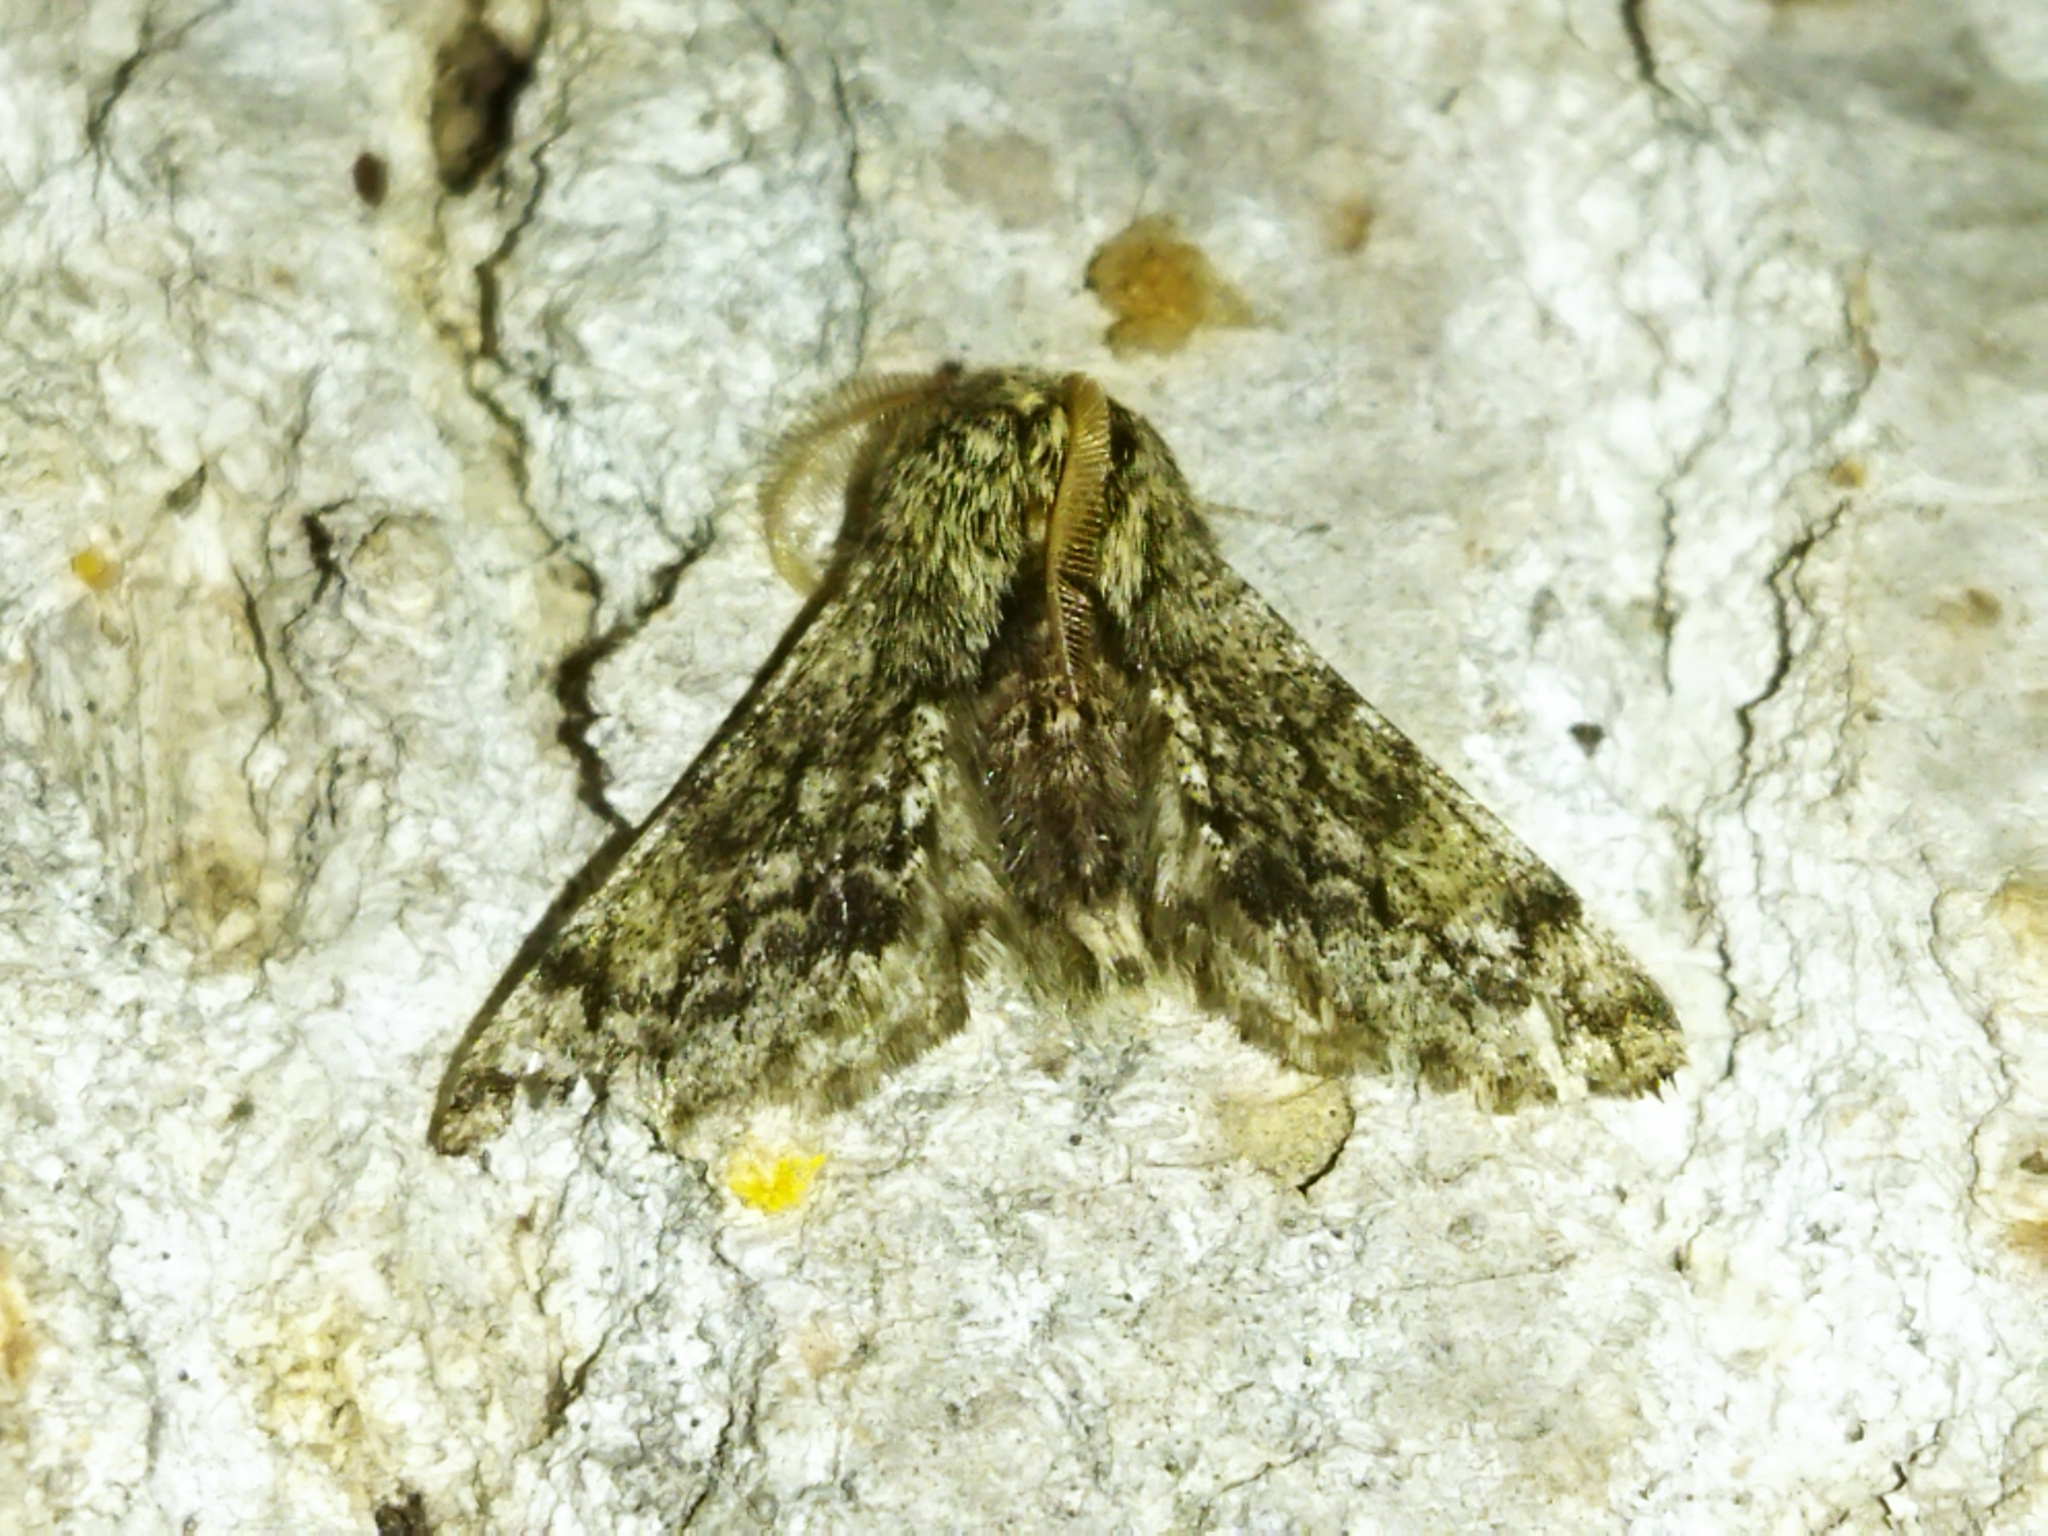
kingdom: Animalia
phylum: Arthropoda
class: Insecta
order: Lepidoptera
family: Geometridae
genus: Apocheima
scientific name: Apocheima hispidaria
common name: Small brindled beauty
